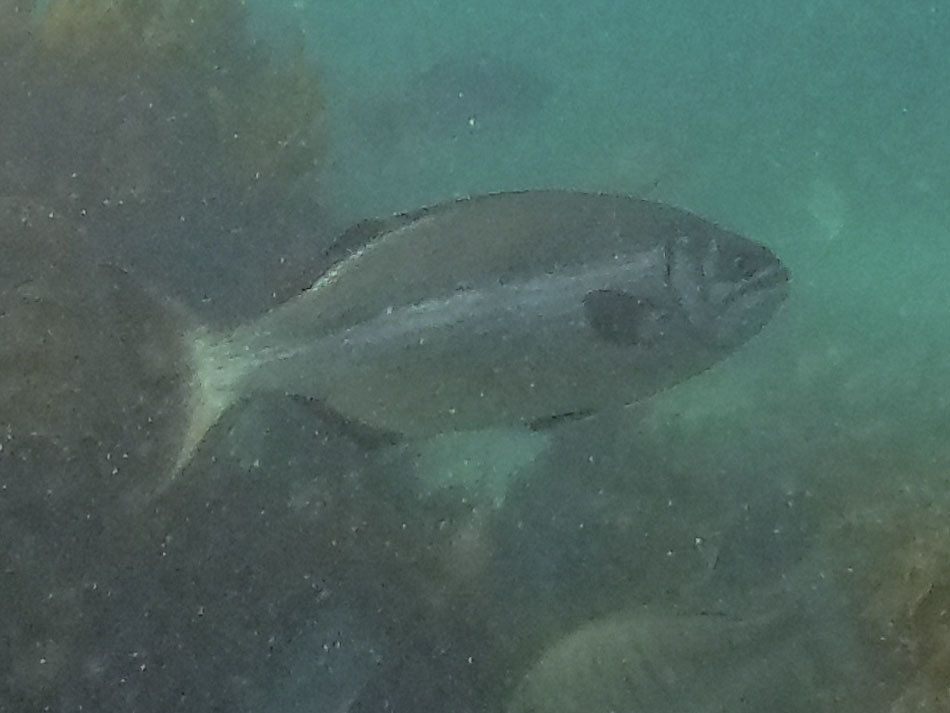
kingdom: Animalia
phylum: Chordata
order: Perciformes
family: Kyphosidae
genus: Kyphosus
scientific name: Kyphosus sydneyanus
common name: Silver drummer
